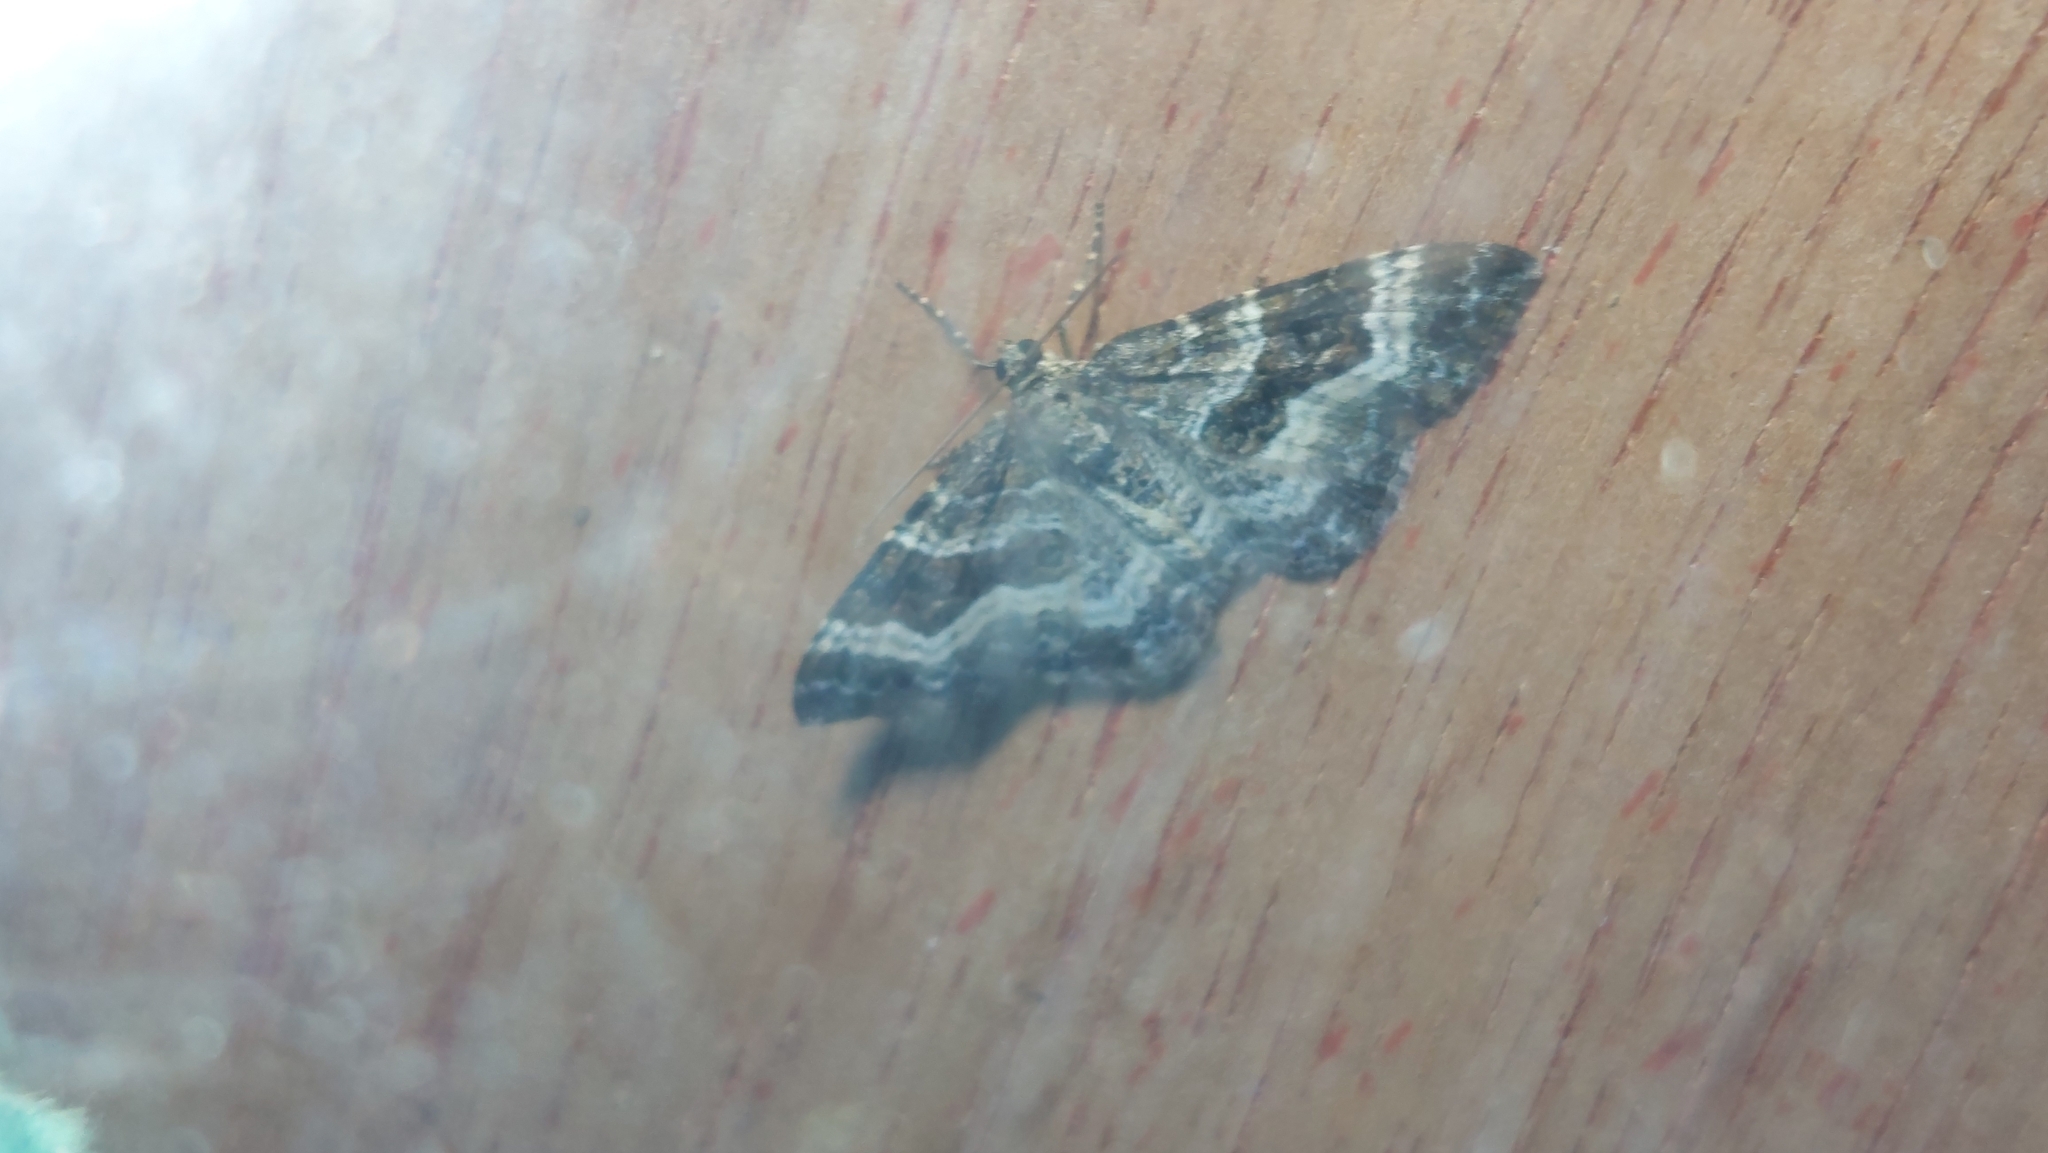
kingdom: Animalia
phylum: Arthropoda
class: Insecta
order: Lepidoptera
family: Geometridae
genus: Epirrhoe
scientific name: Epirrhoe alternata
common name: Common carpet
